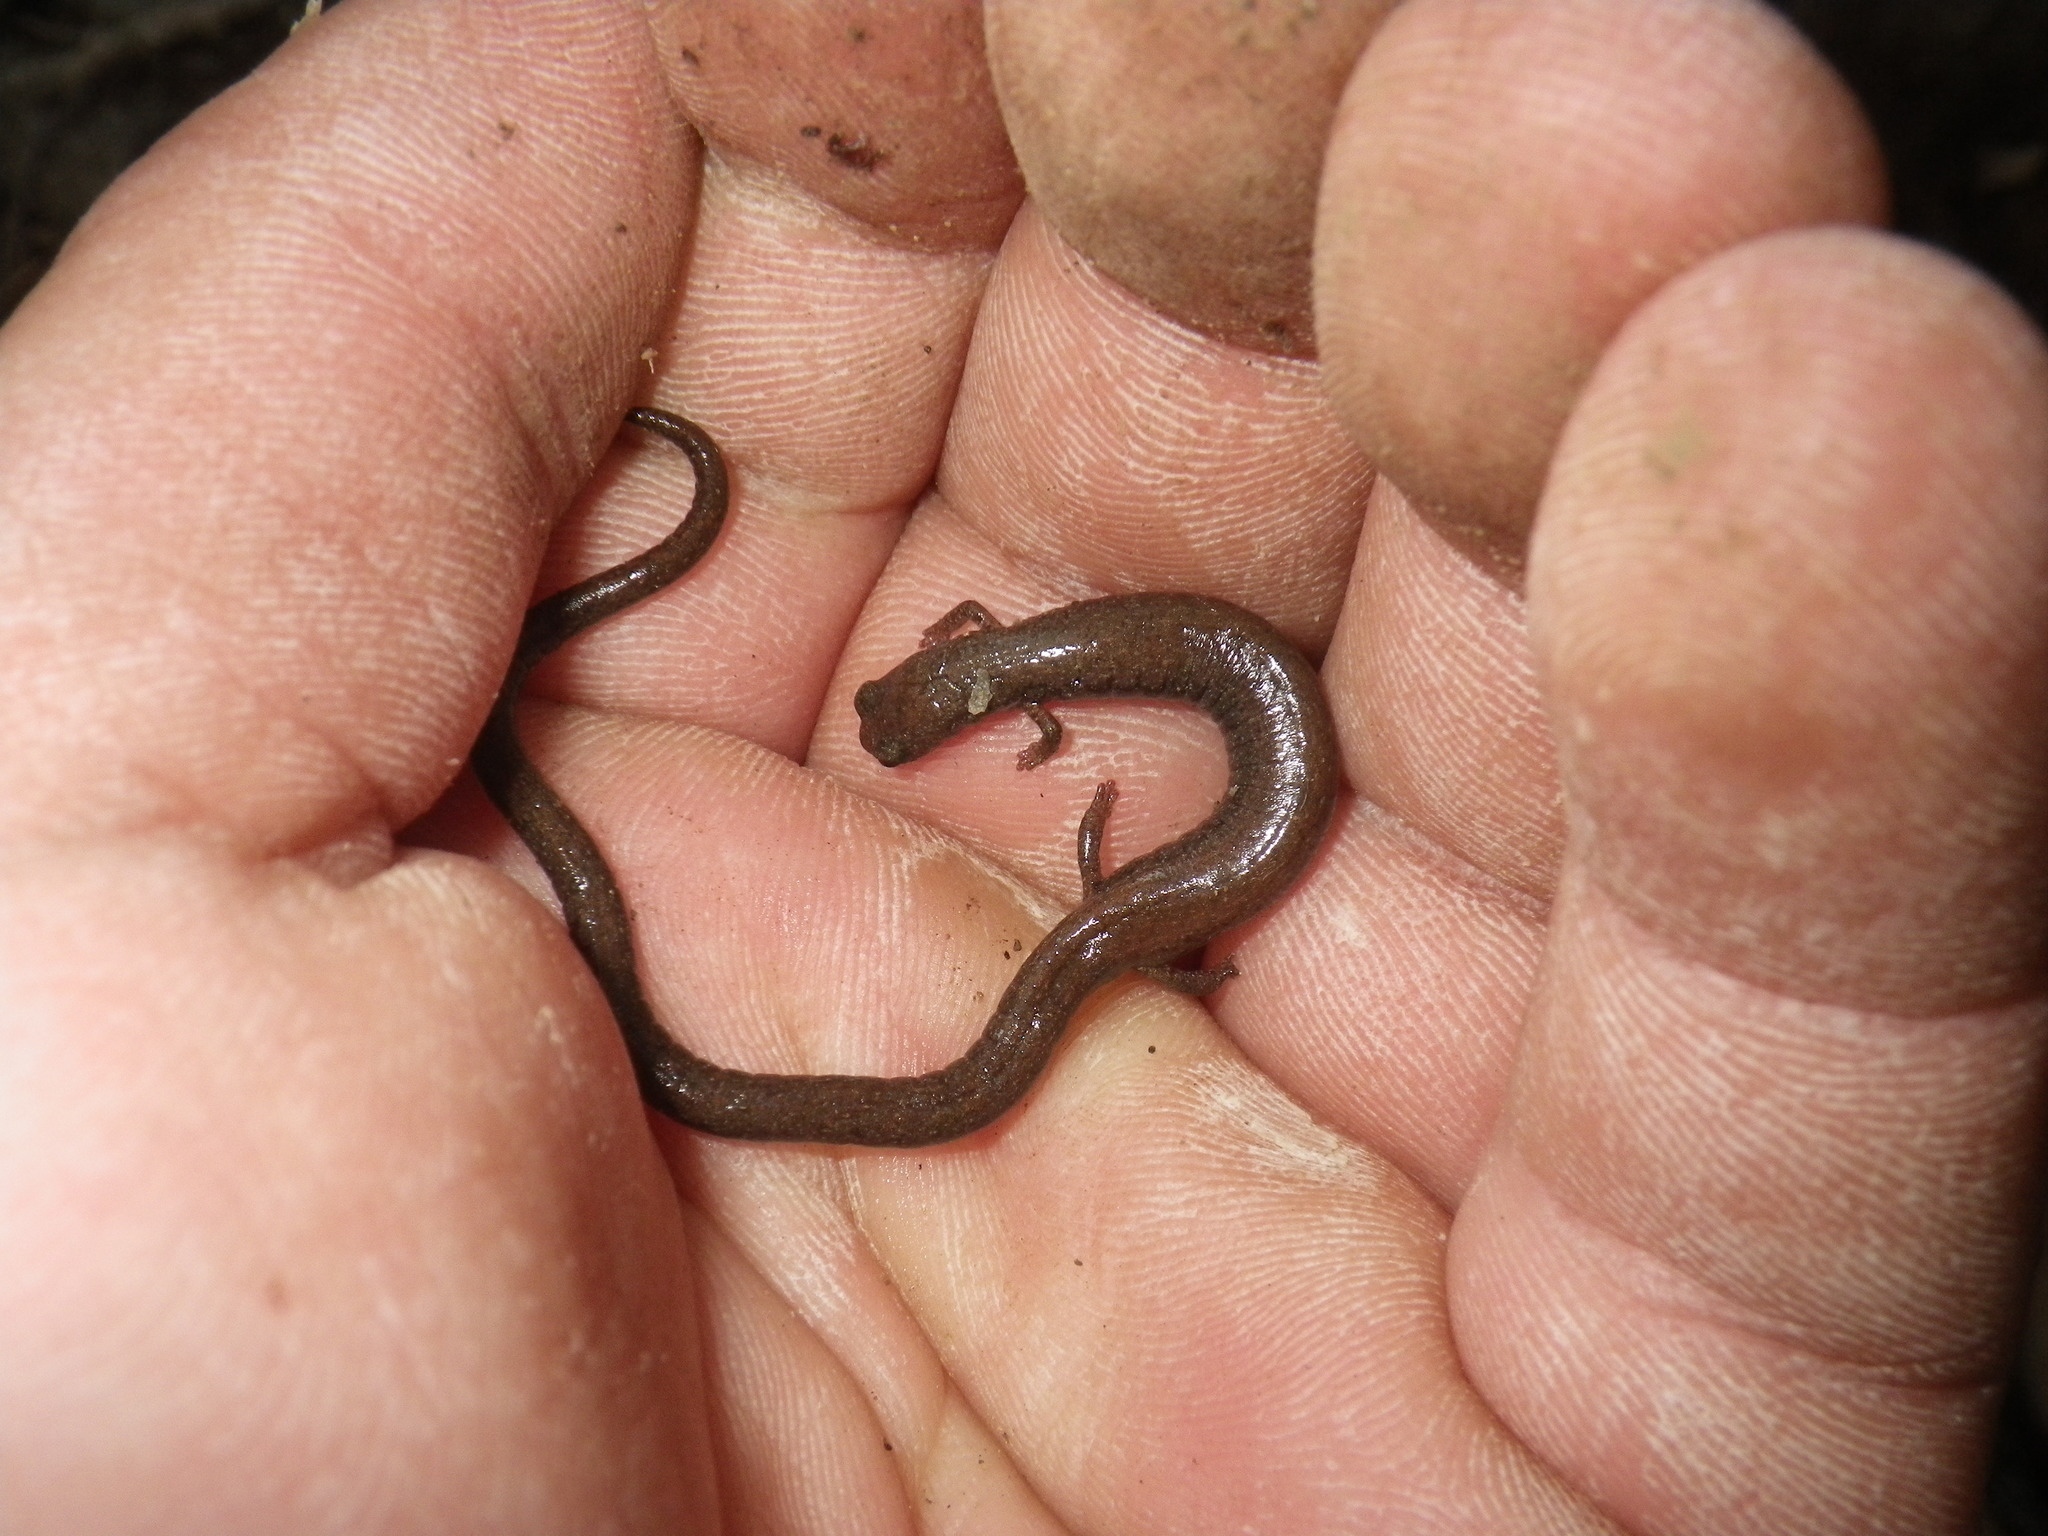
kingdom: Animalia
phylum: Chordata
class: Amphibia
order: Caudata
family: Plethodontidae
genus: Batrachoseps
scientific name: Batrachoseps nigriventris
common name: Black-bellied slender salamander
